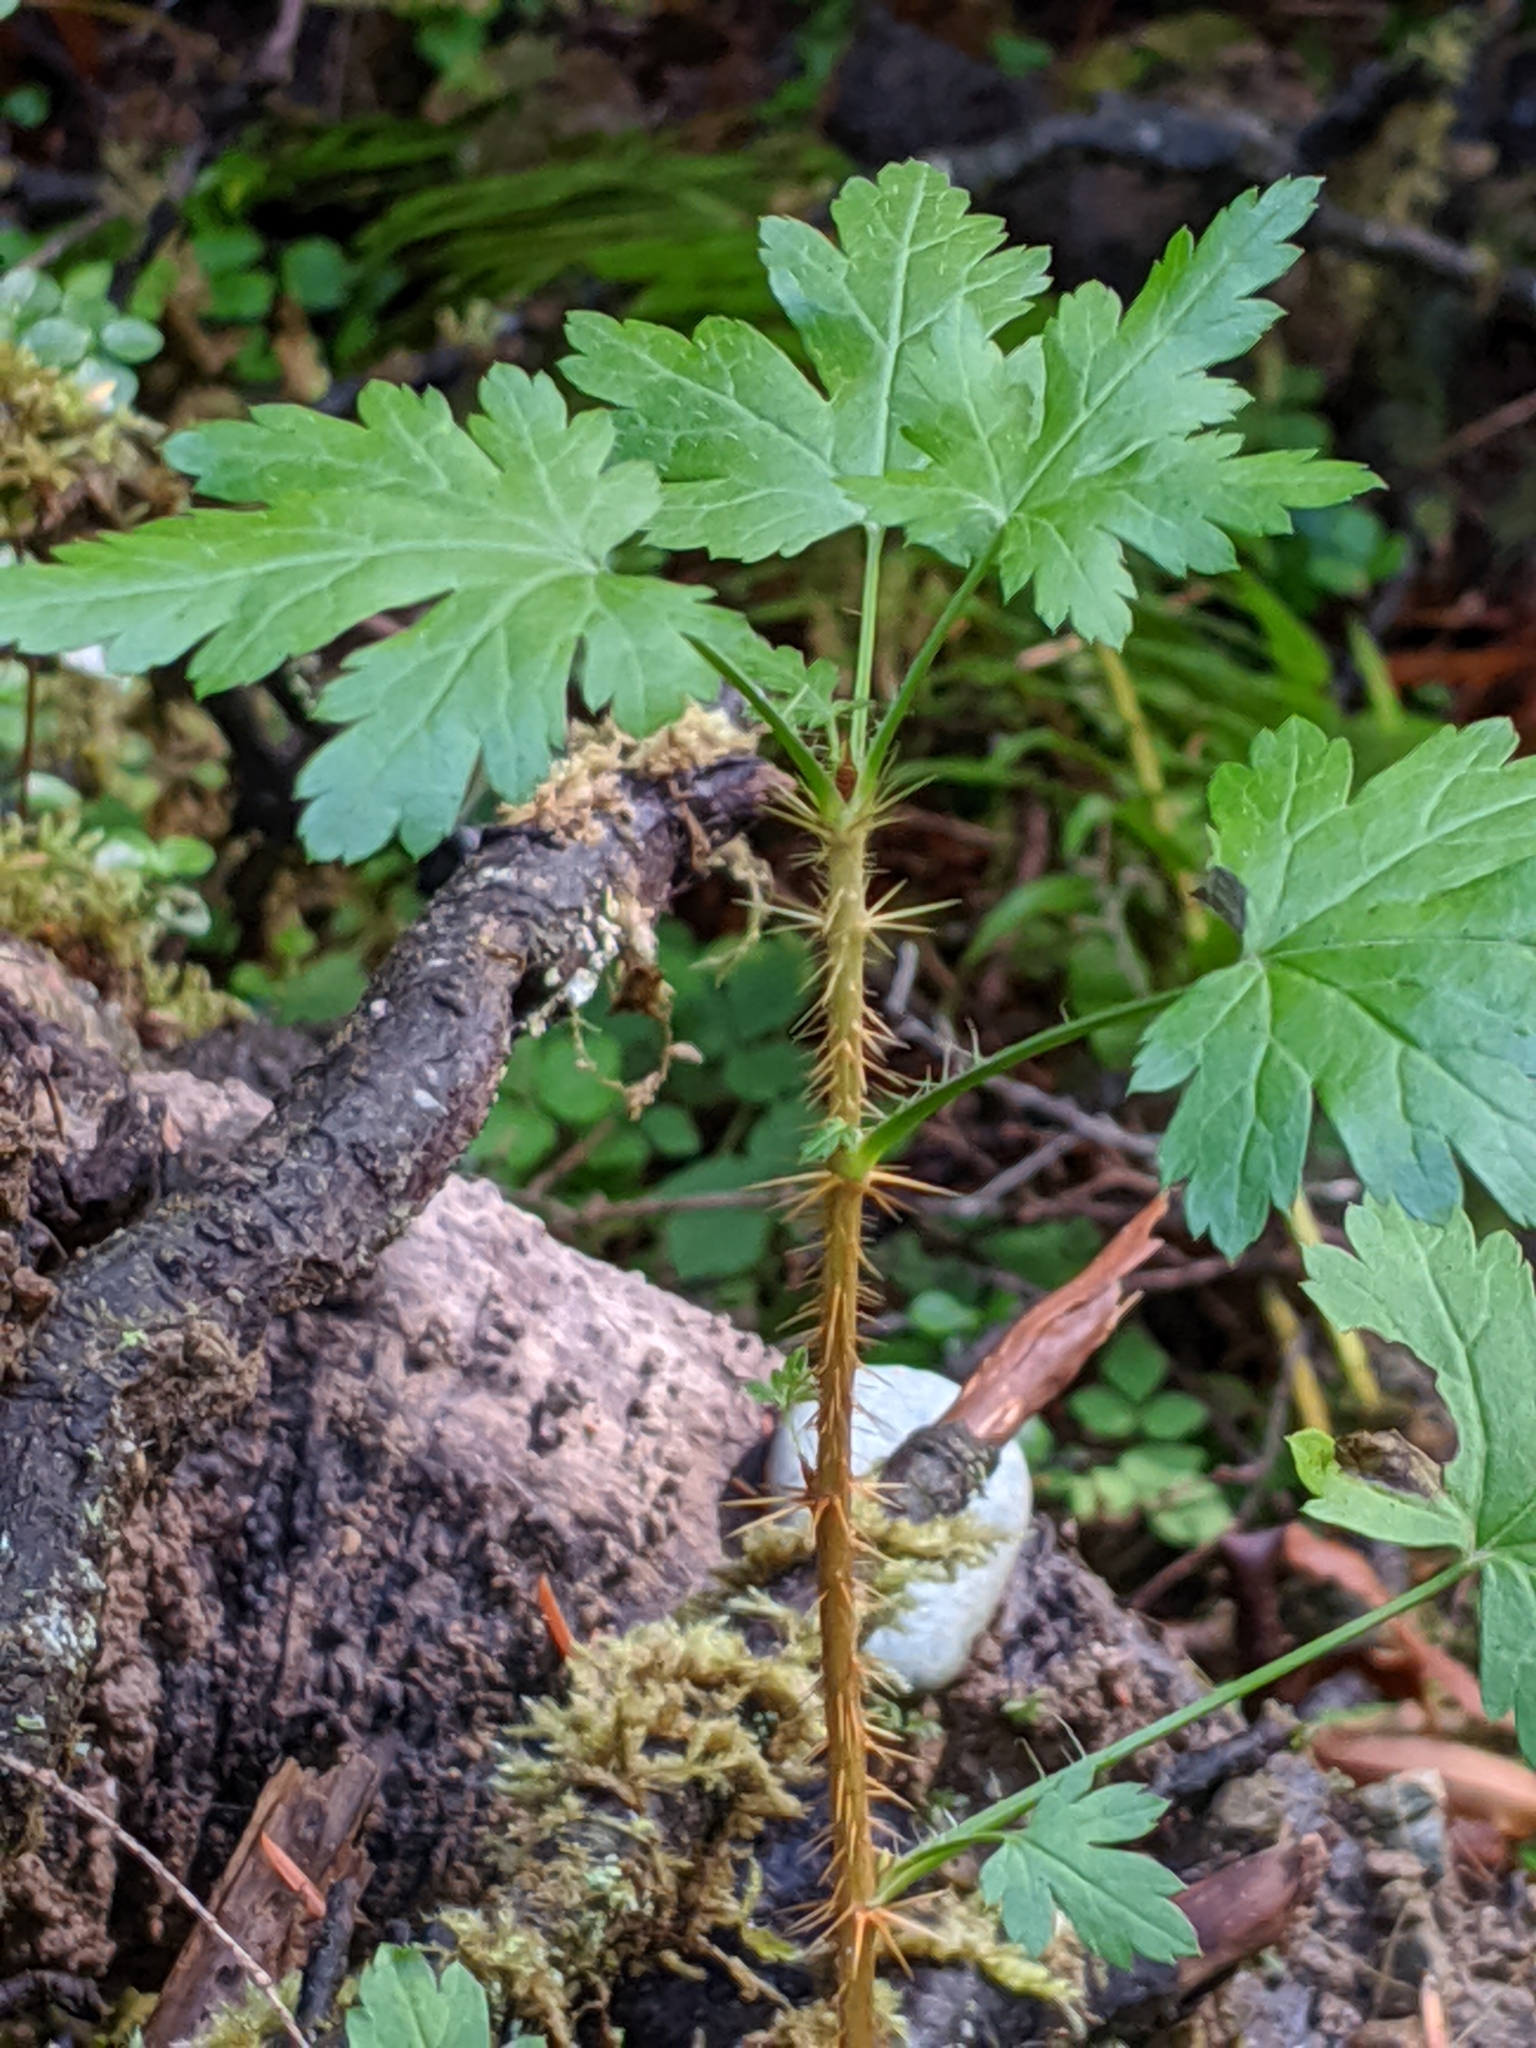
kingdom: Plantae
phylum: Tracheophyta
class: Magnoliopsida
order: Saxifragales
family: Grossulariaceae
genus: Ribes
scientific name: Ribes lacustre
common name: Black gooseberry
